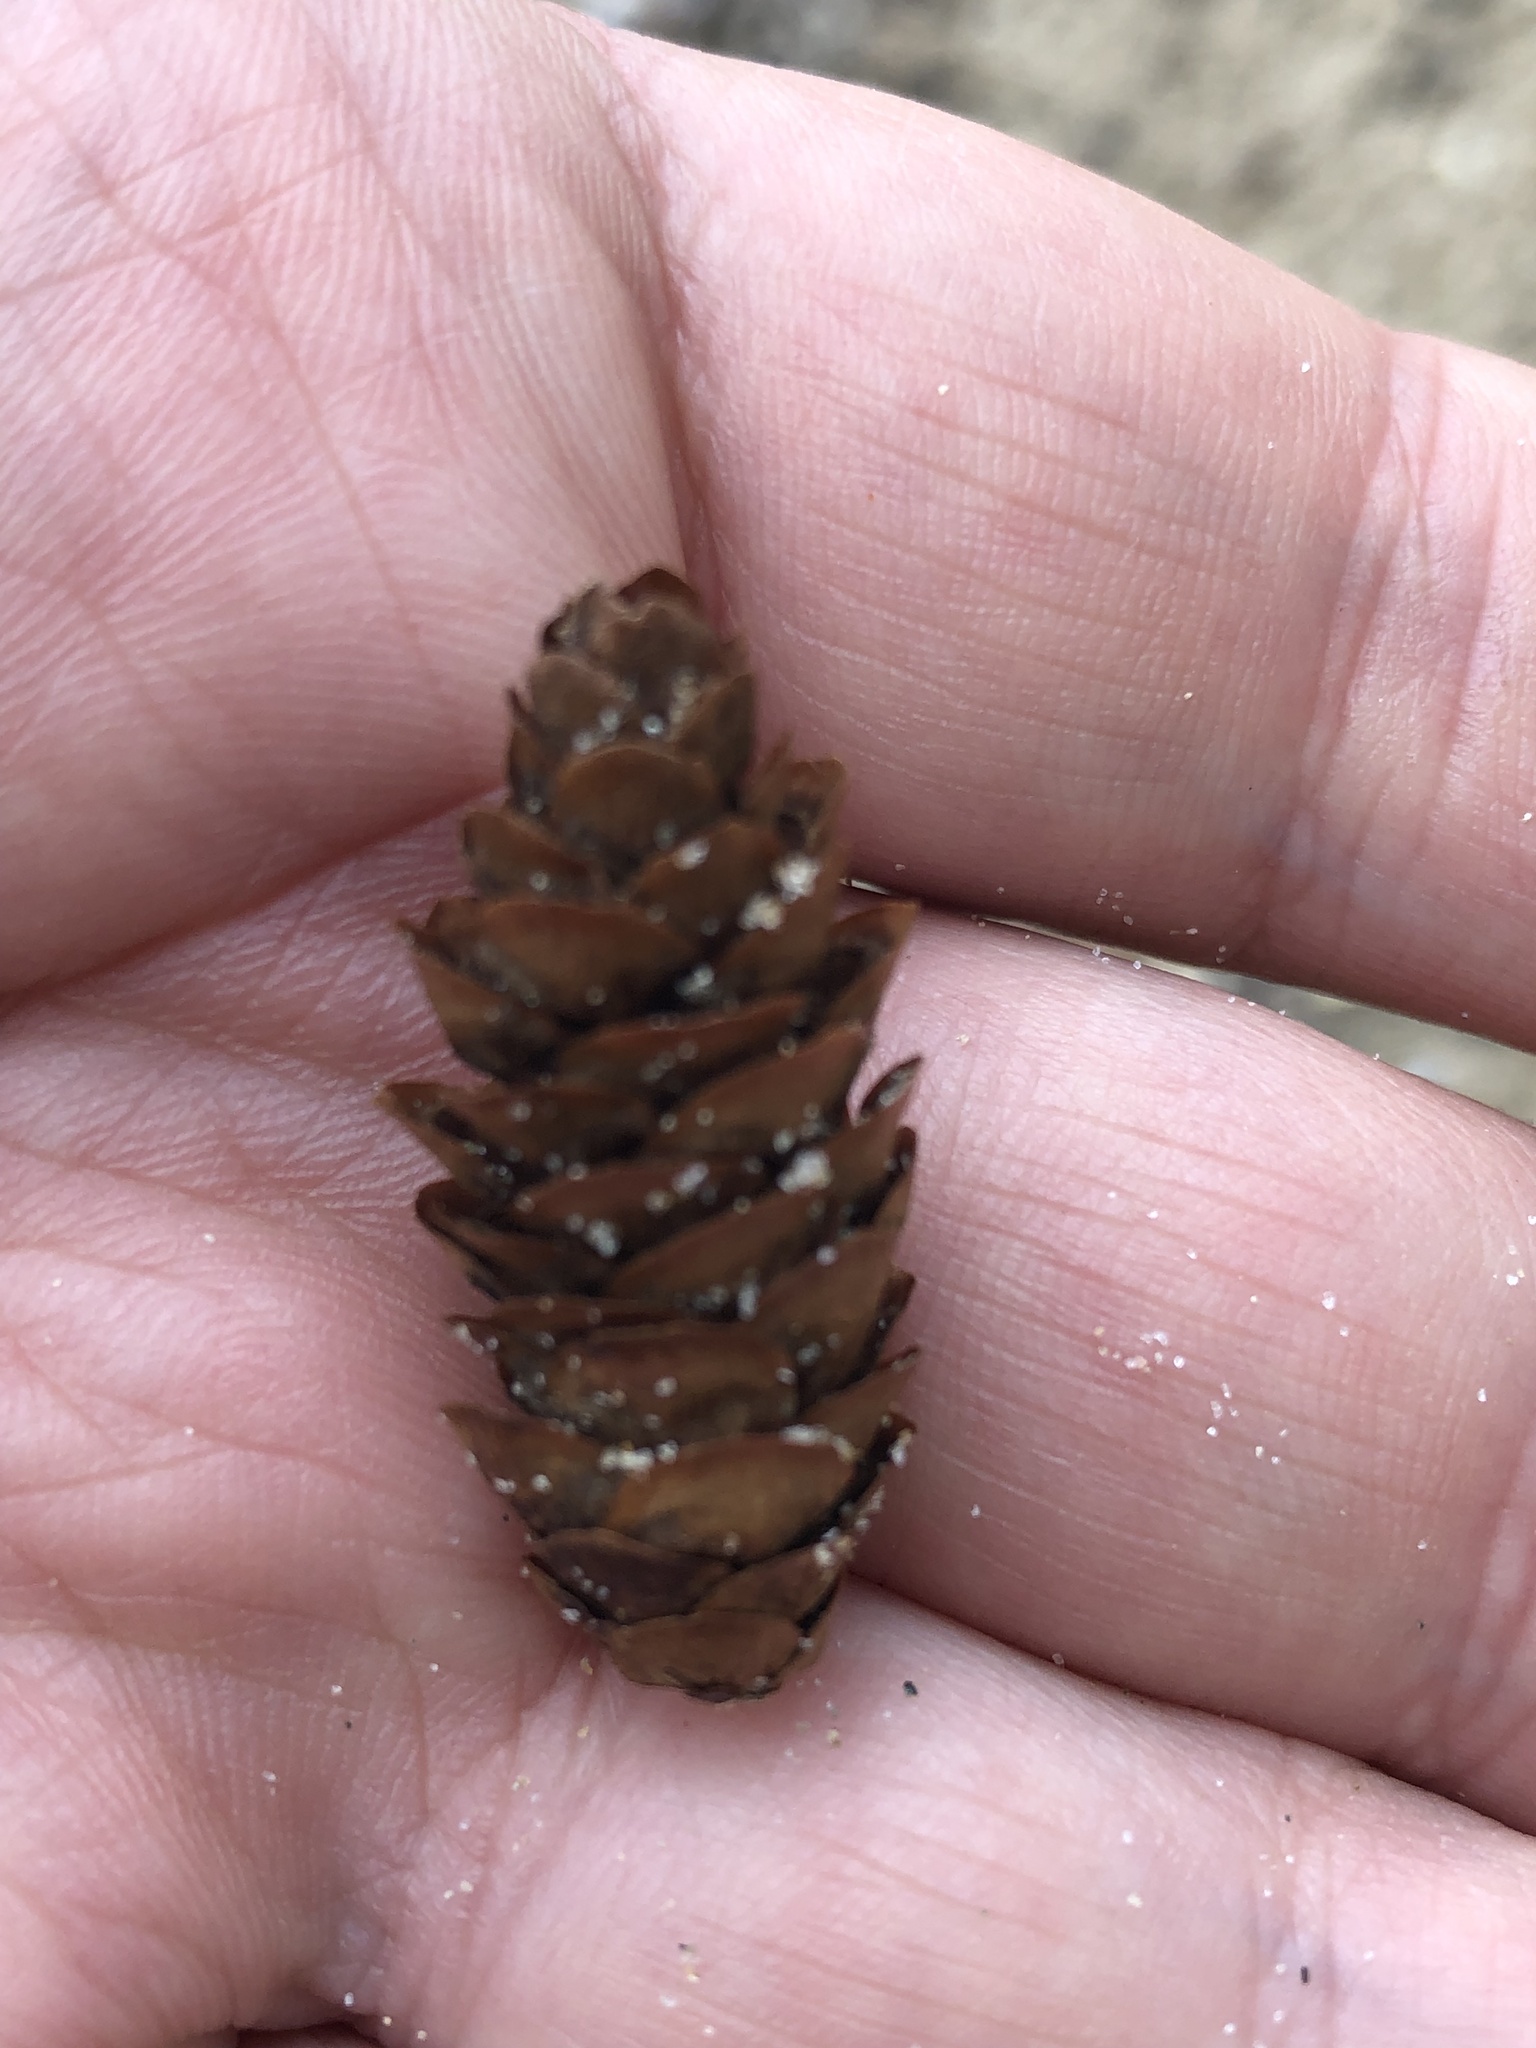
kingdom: Plantae
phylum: Tracheophyta
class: Pinopsida
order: Pinales
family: Pinaceae
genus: Picea
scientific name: Picea glauca
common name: White spruce
